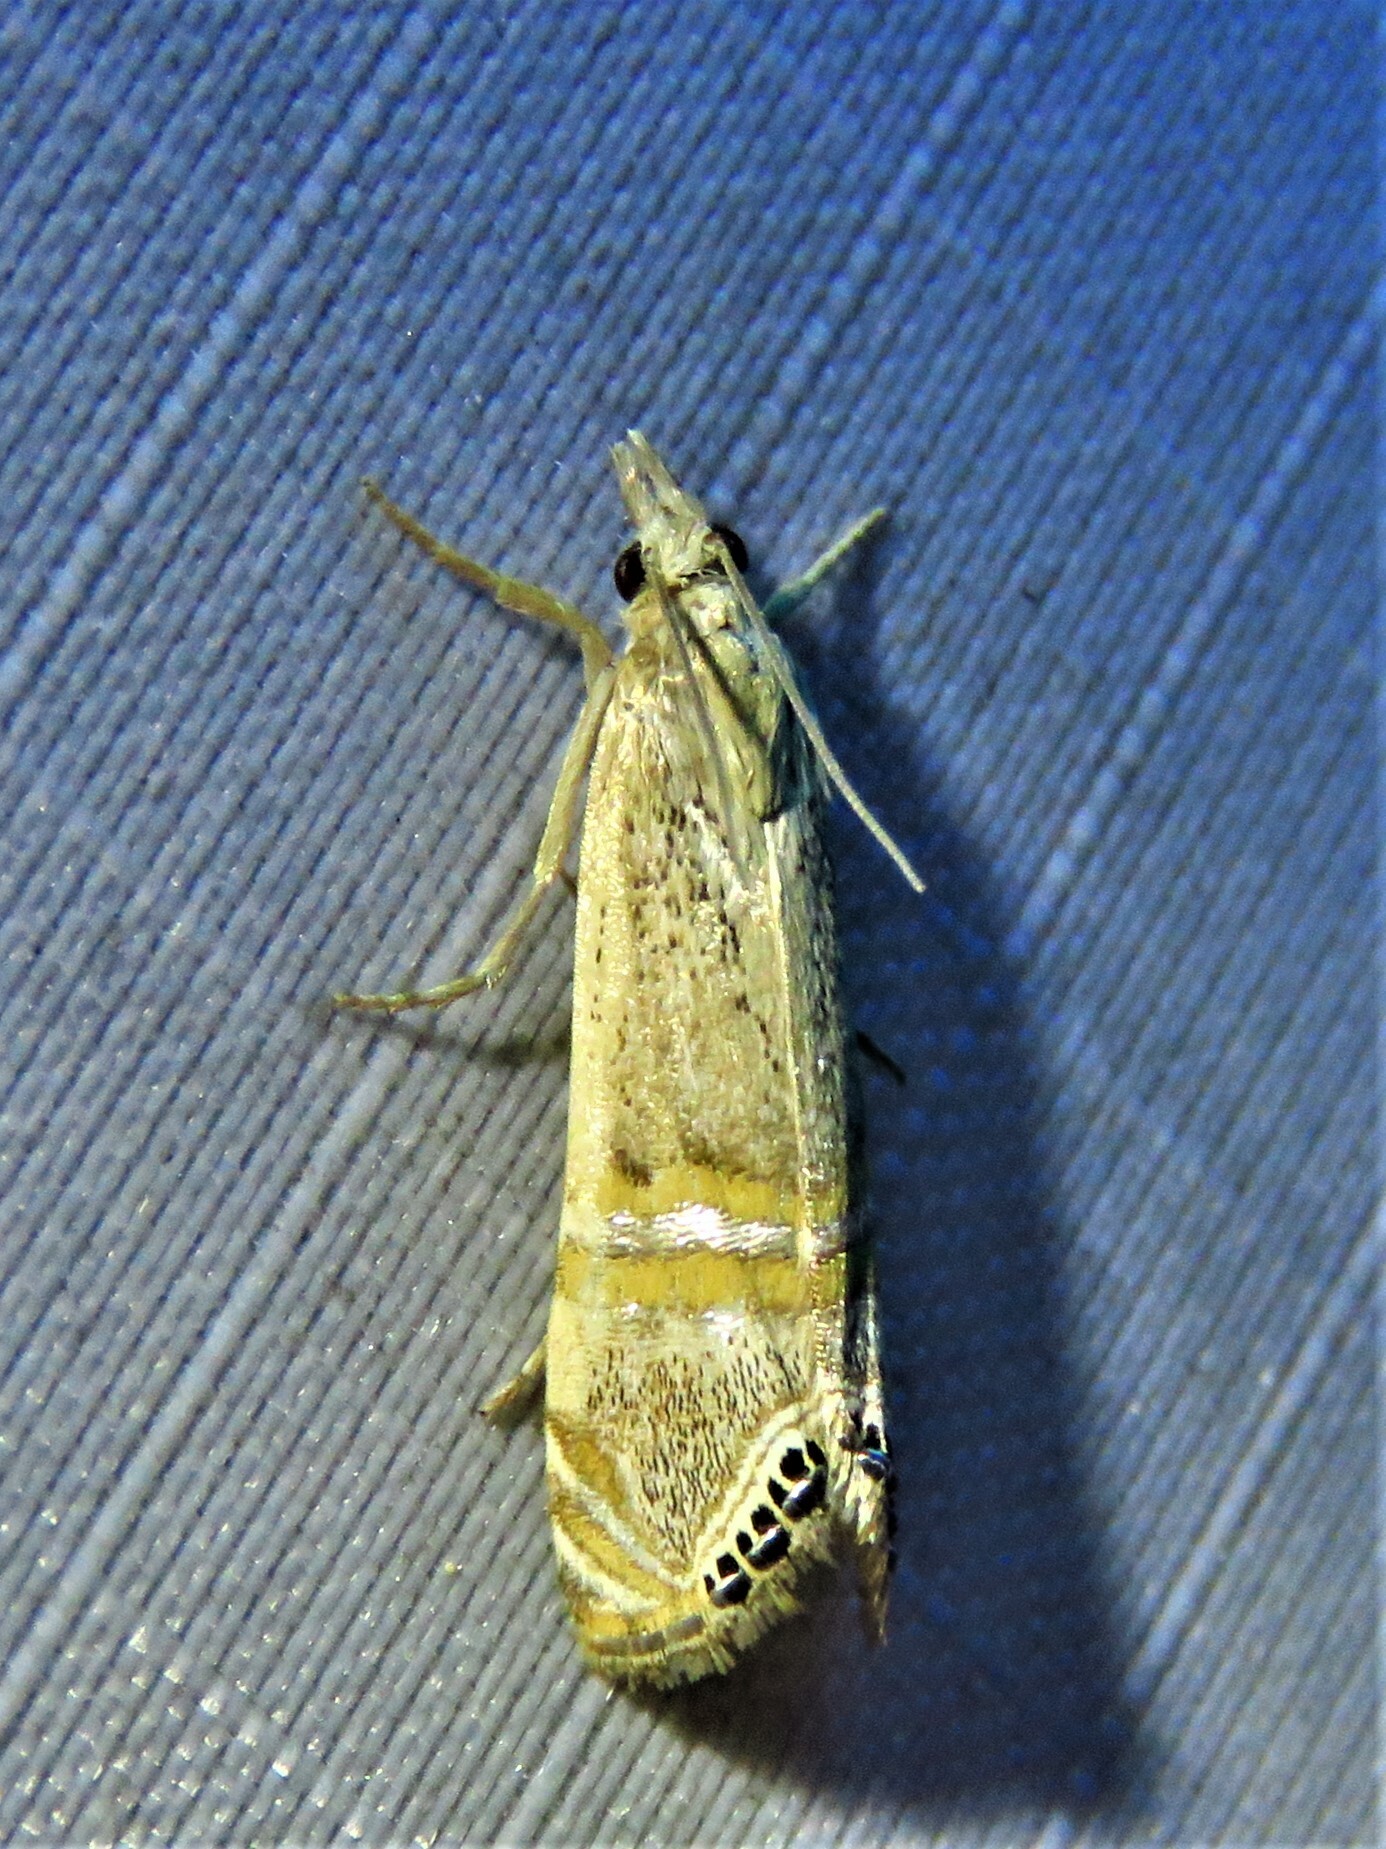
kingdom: Animalia
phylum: Arthropoda
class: Insecta
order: Lepidoptera
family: Crambidae
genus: Euchromius
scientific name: Euchromius ocellea
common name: Necklace veneer moth
